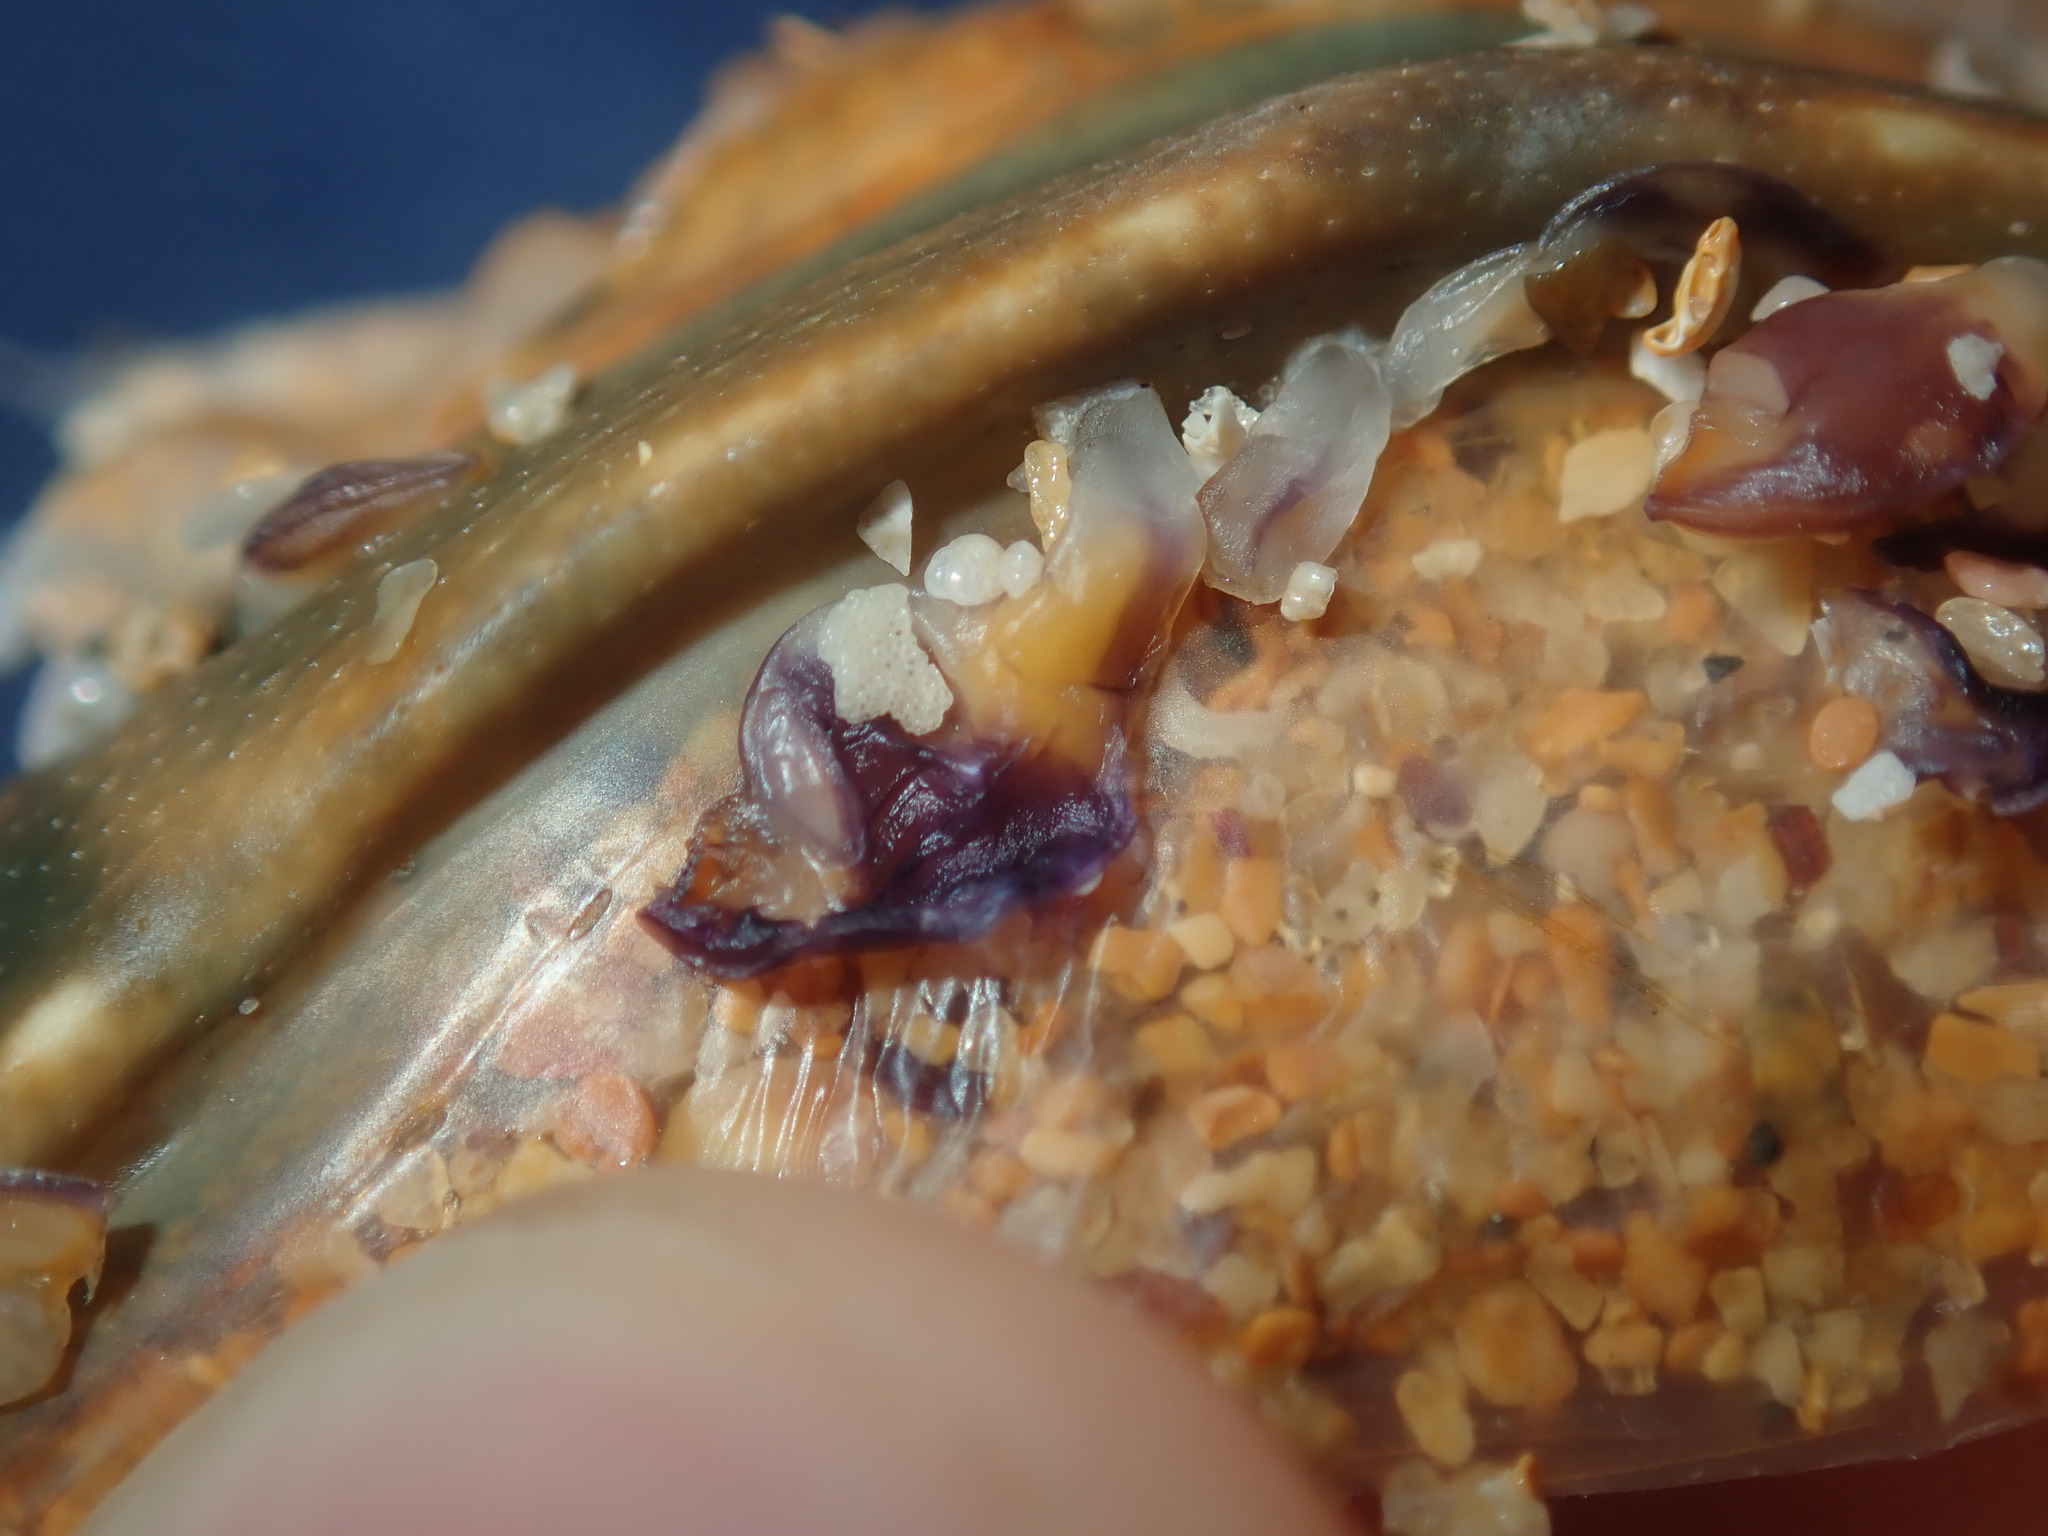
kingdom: Animalia
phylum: Arthropoda
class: Maxillopoda
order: Pedunculata
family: Heteralepadidae
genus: Paralepas
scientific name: Paralepas quadrata
